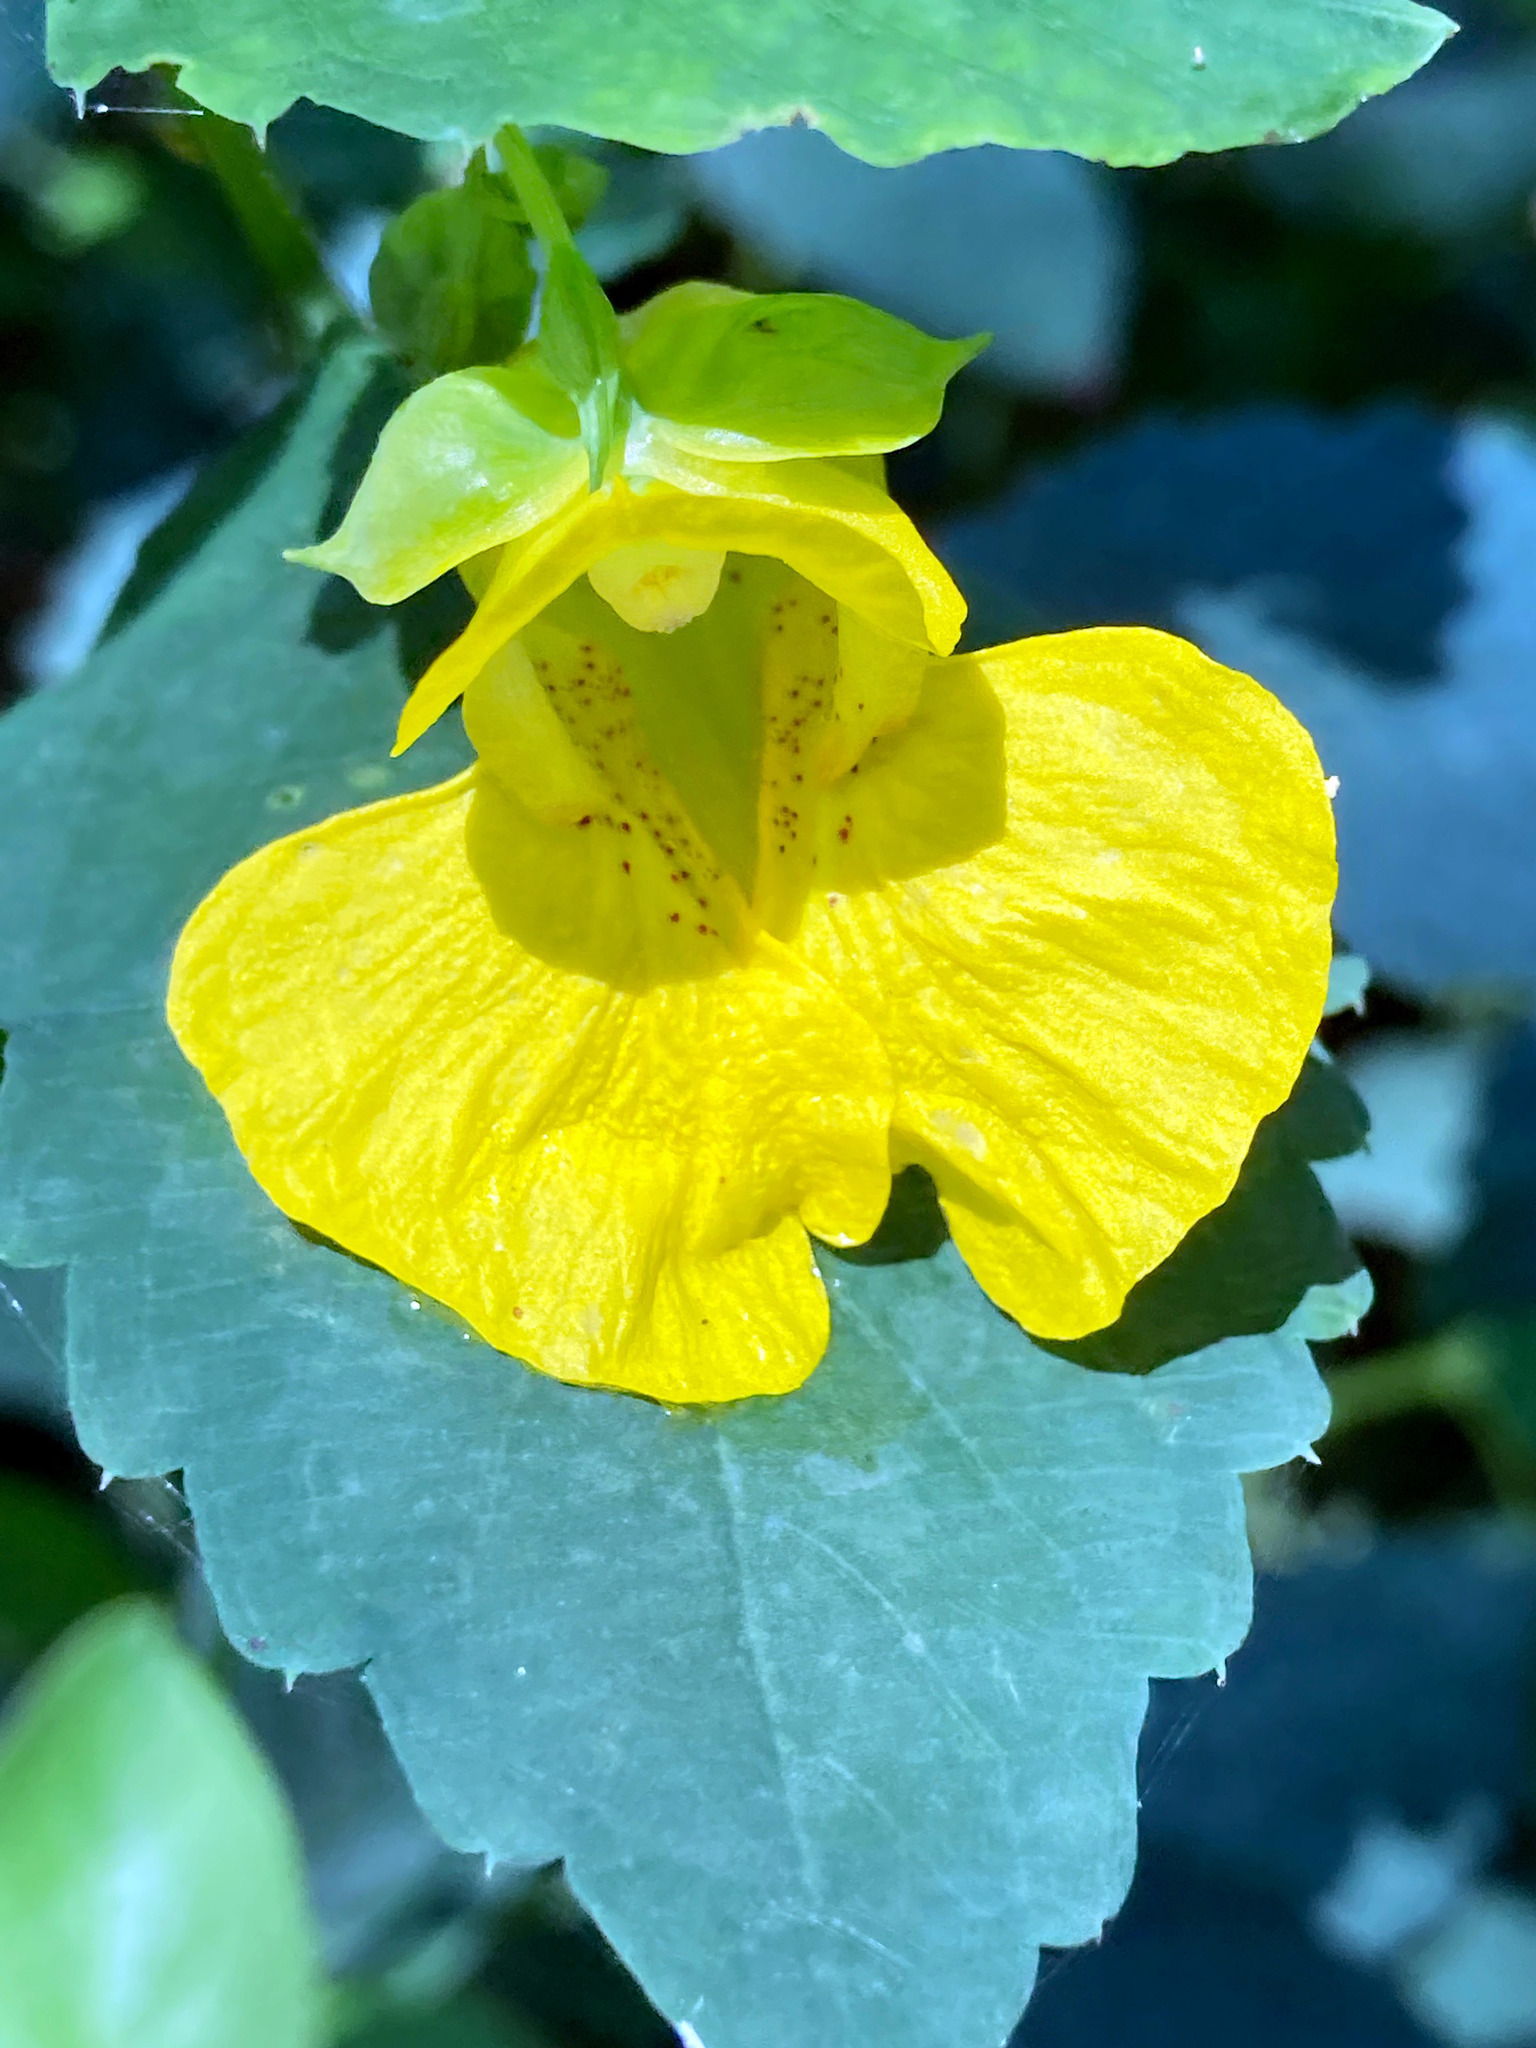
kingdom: Plantae
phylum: Tracheophyta
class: Magnoliopsida
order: Ericales
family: Balsaminaceae
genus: Impatiens
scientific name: Impatiens pallida
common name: Pale snapweed
